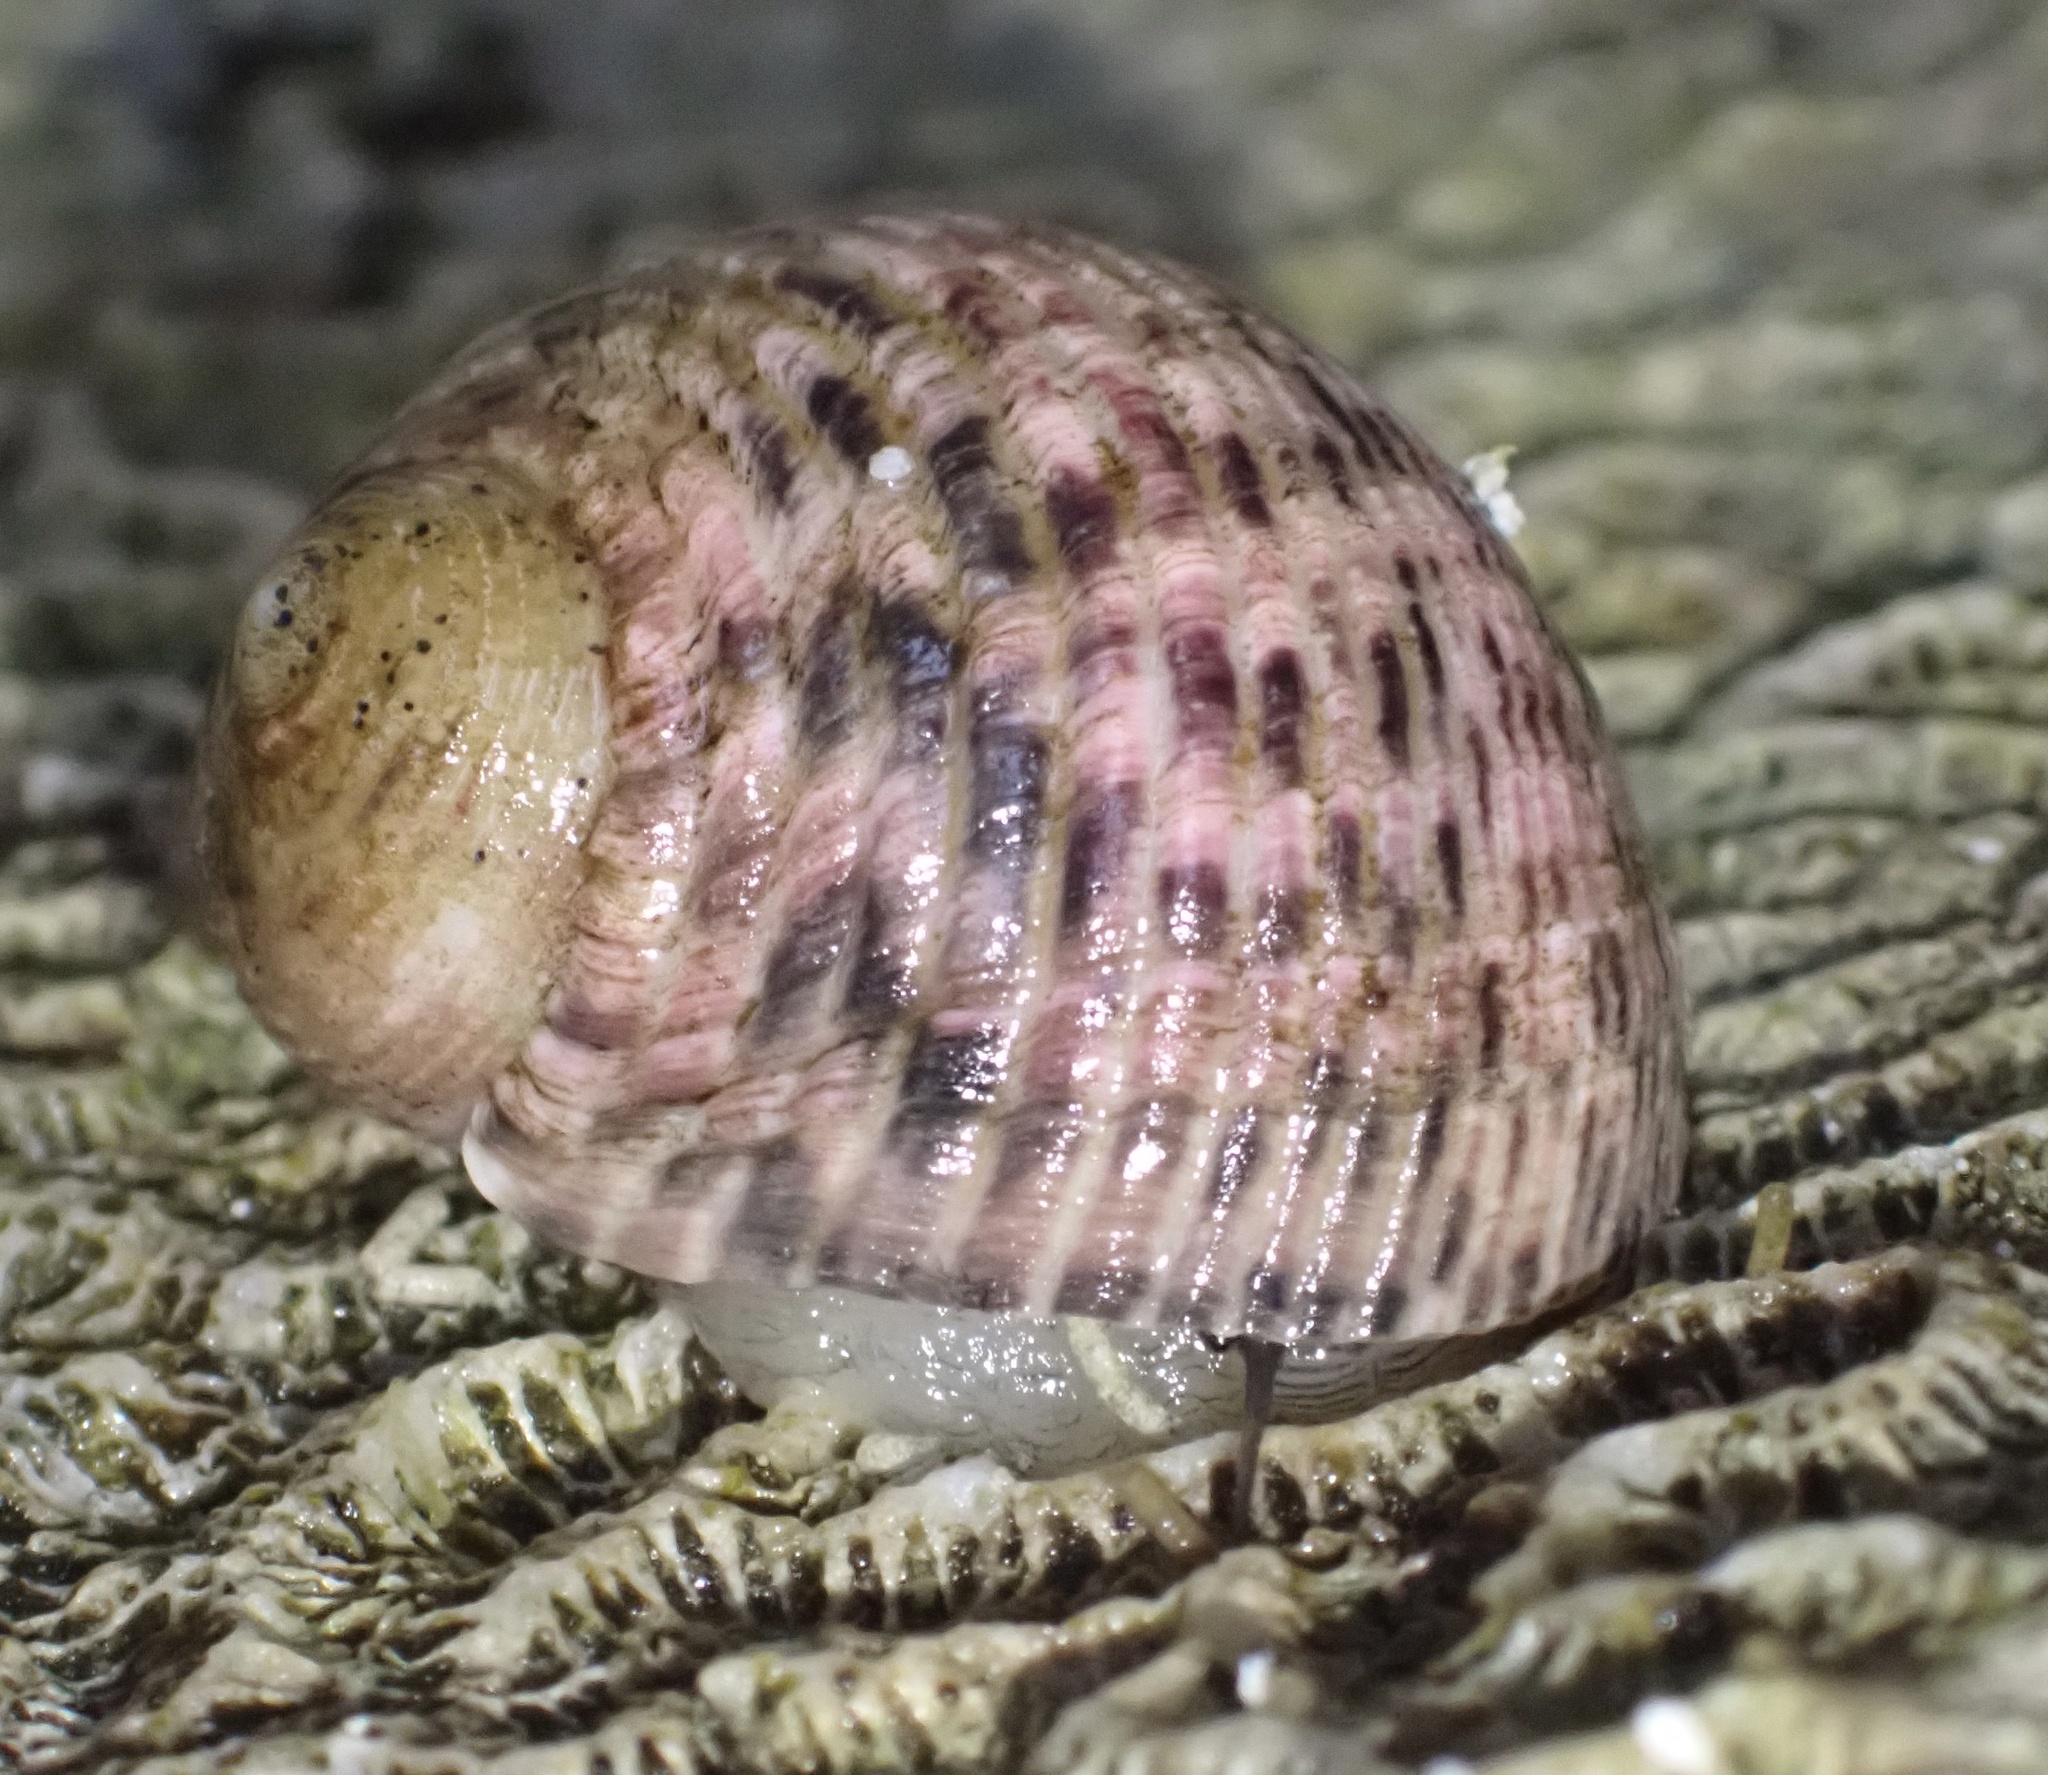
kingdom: Animalia
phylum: Mollusca
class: Gastropoda
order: Cycloneritida
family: Neritidae
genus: Nerita
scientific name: Nerita quadricolor
